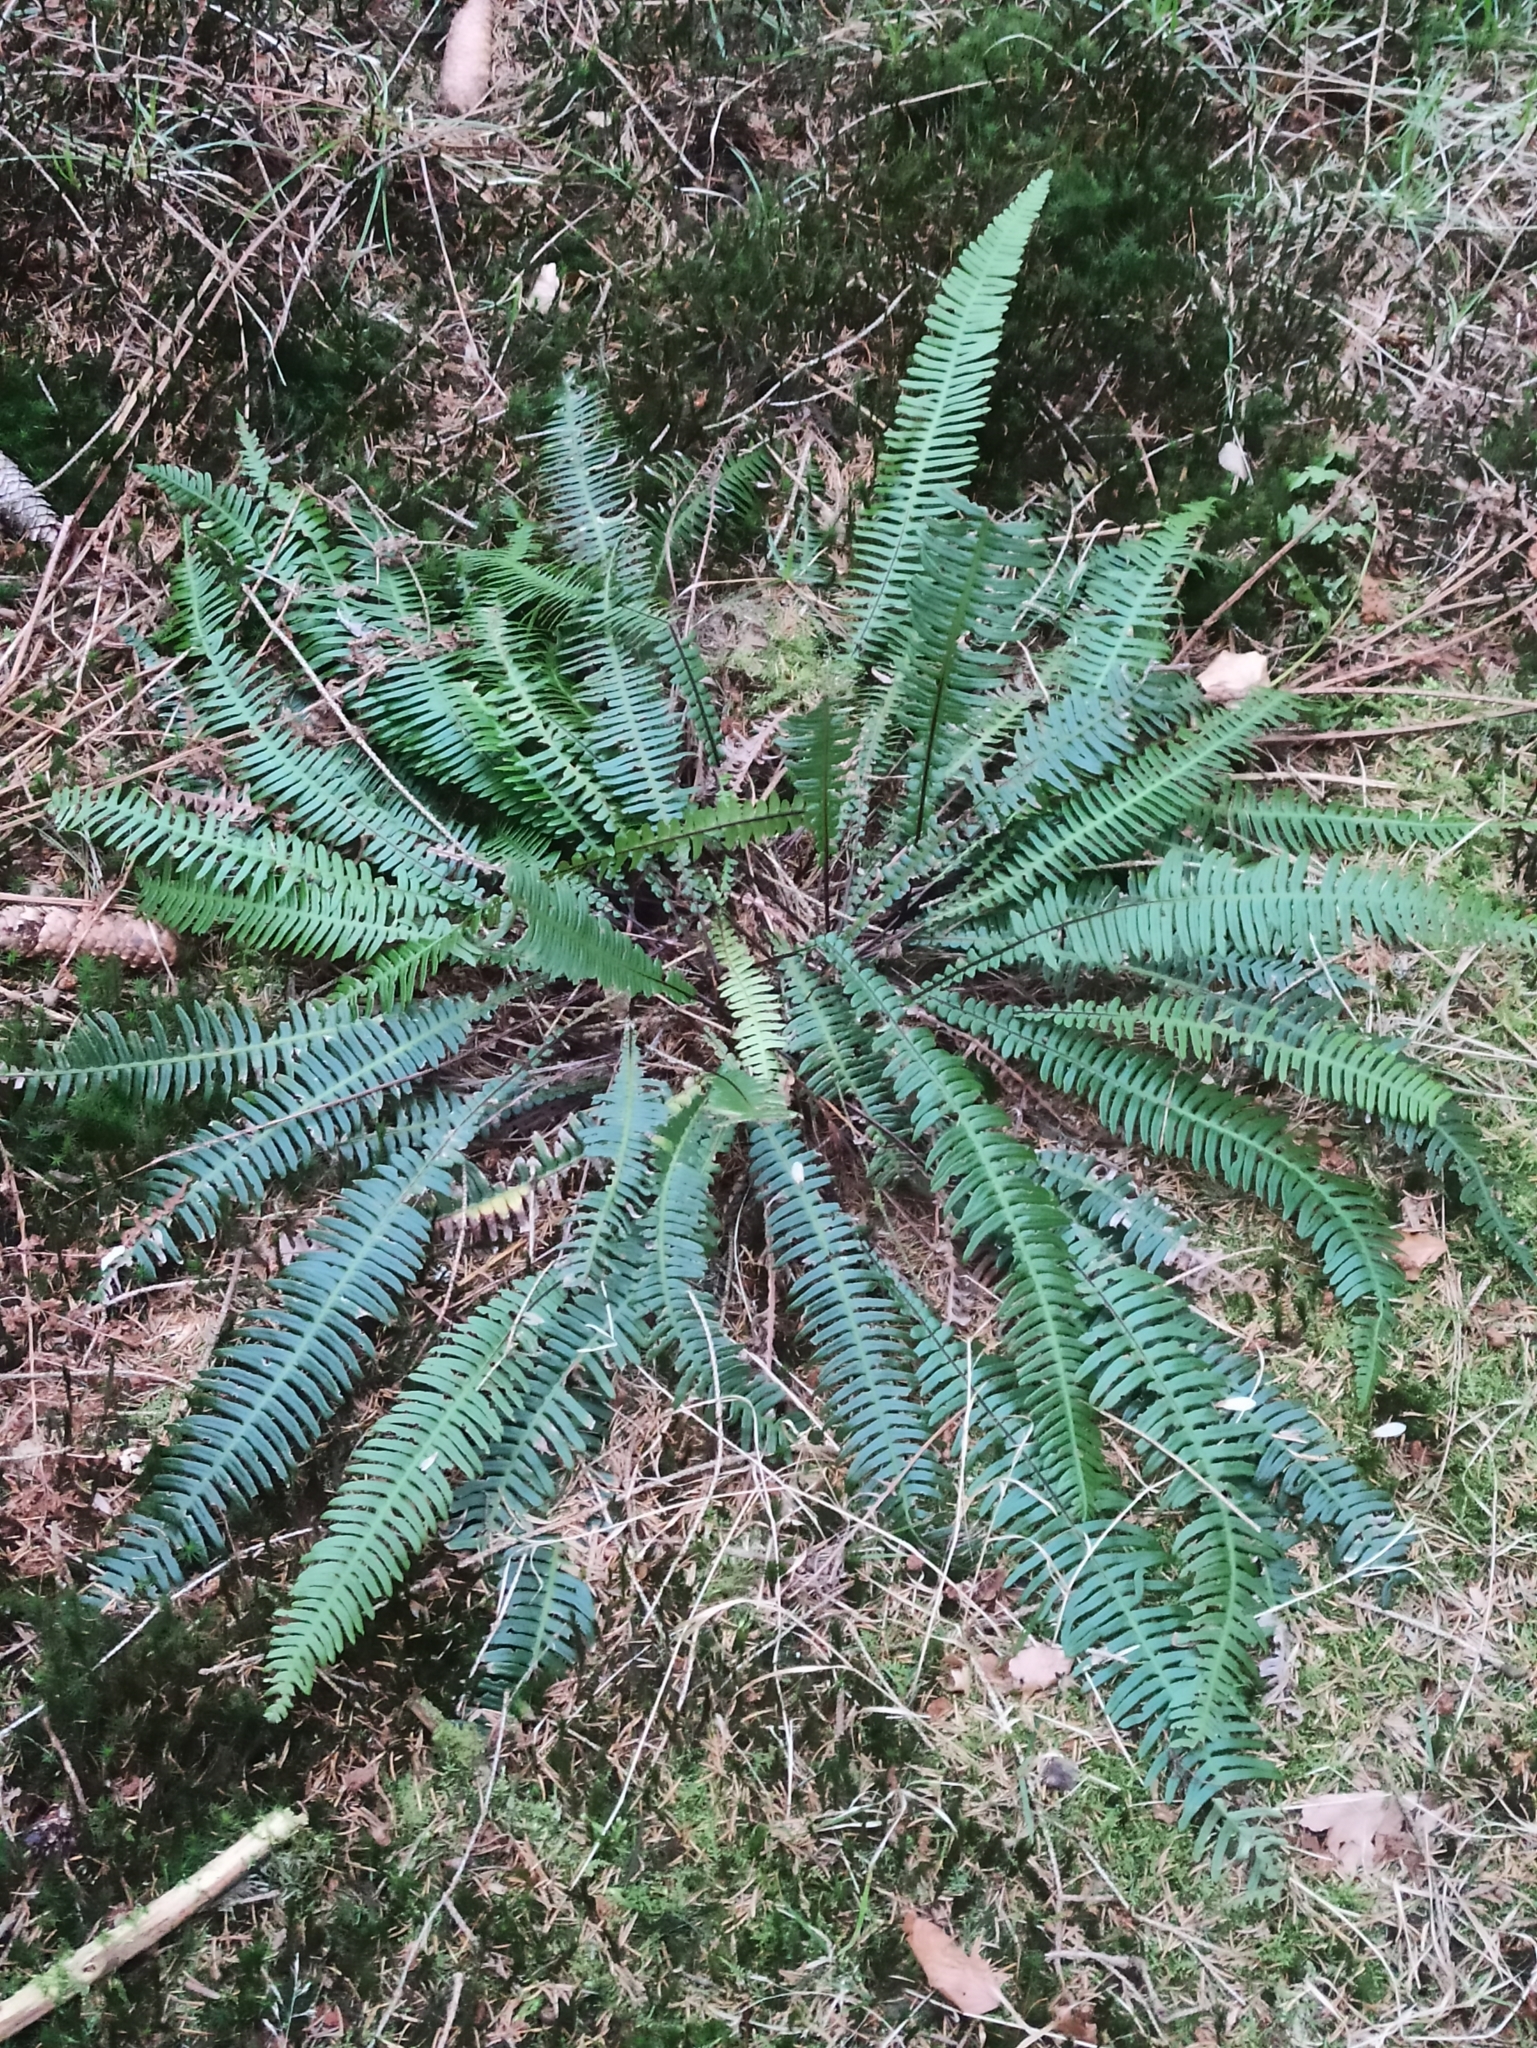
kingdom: Plantae
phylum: Tracheophyta
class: Polypodiopsida
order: Polypodiales
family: Blechnaceae
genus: Struthiopteris
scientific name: Struthiopteris spicant
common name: Deer fern
